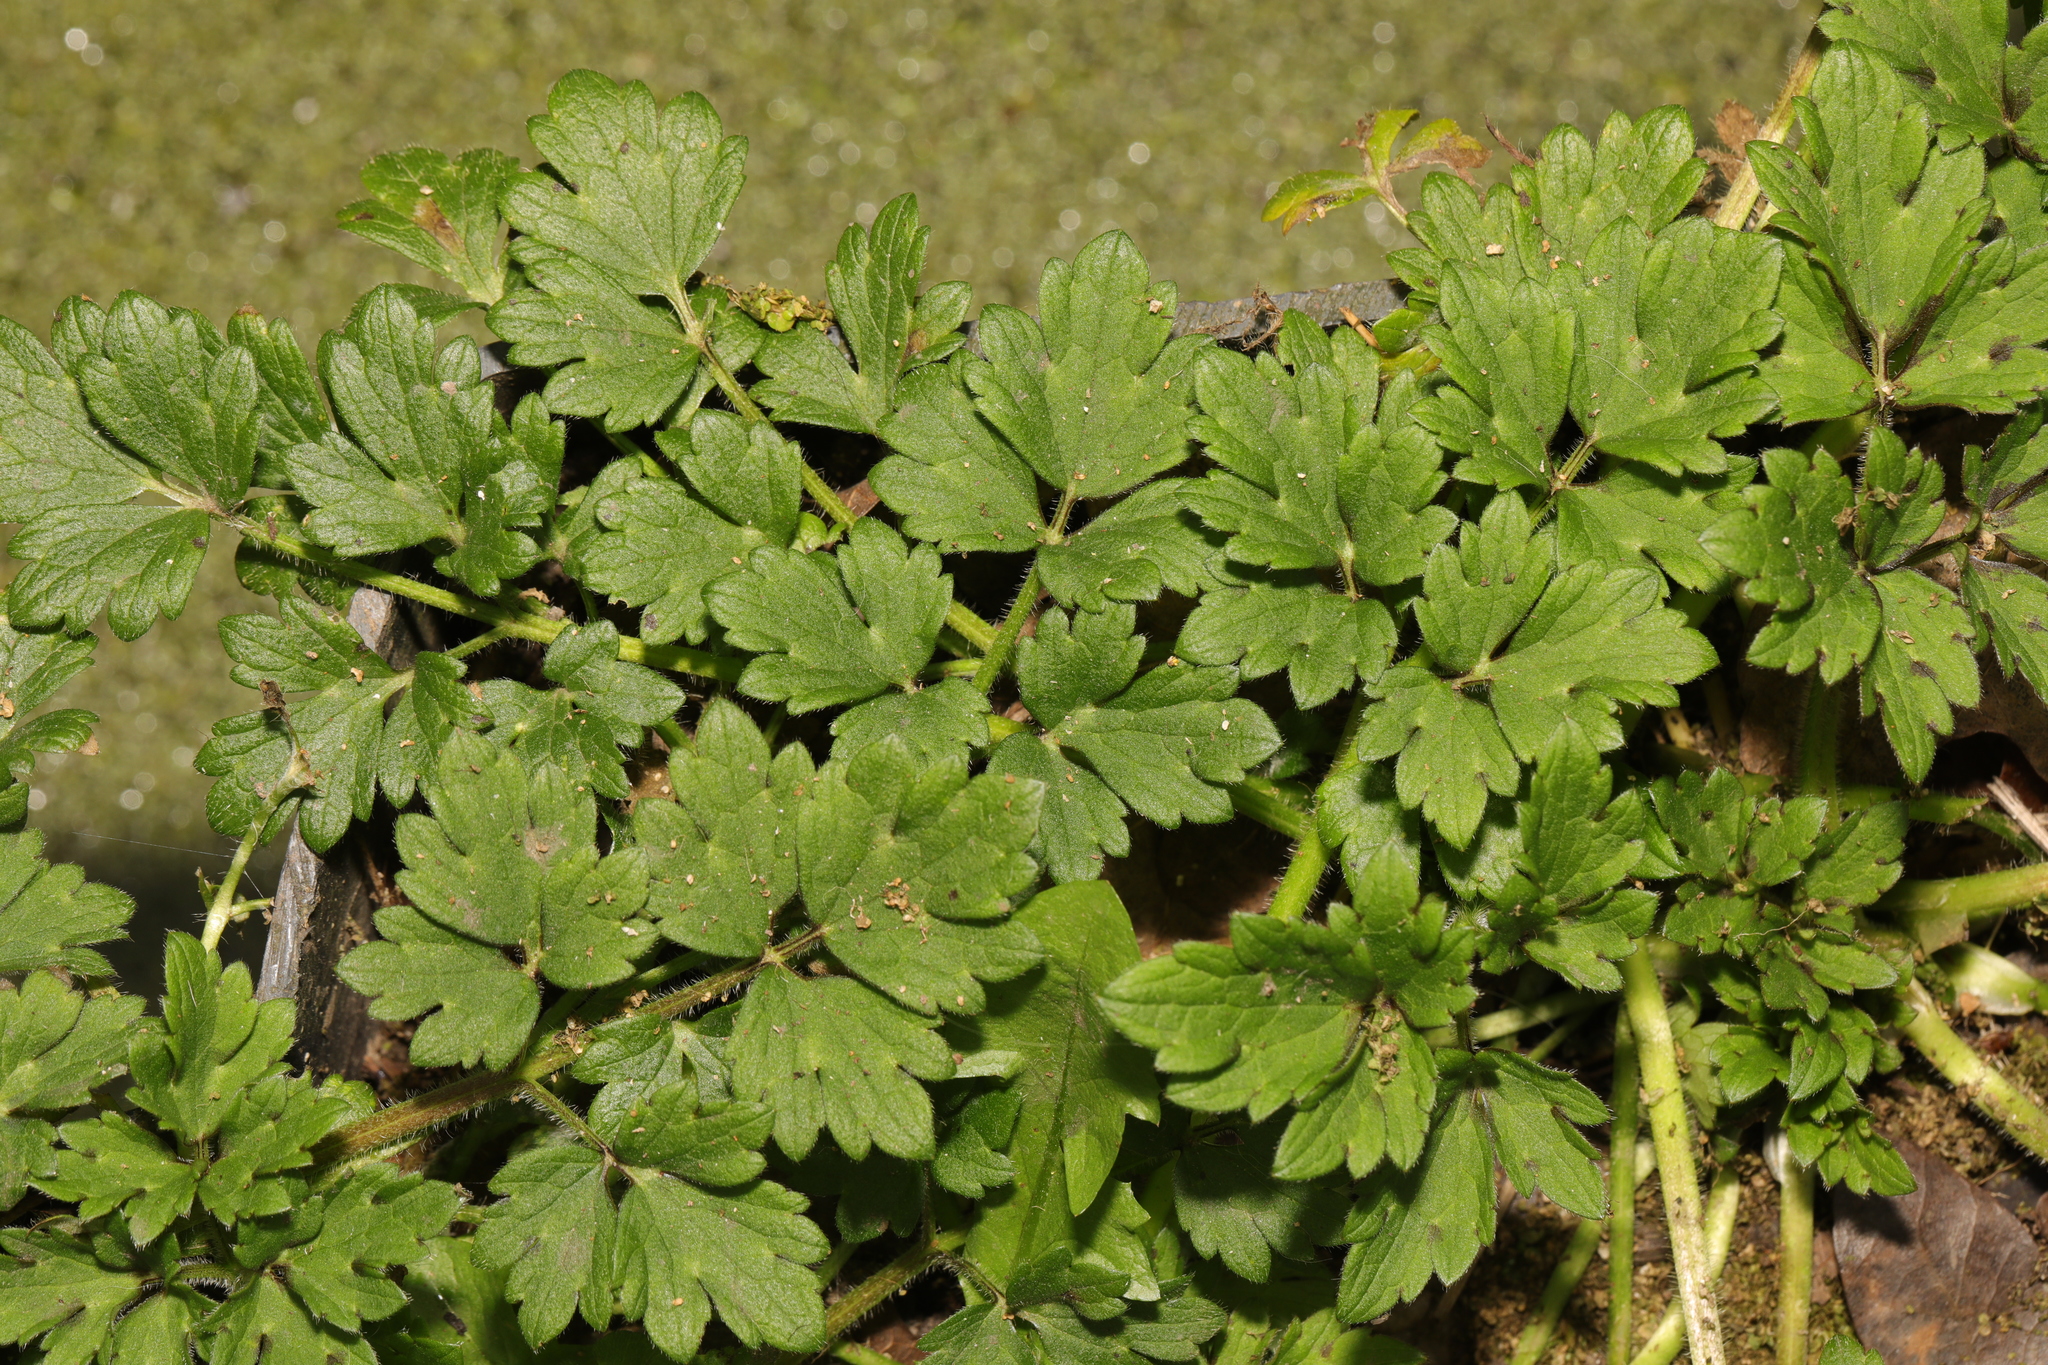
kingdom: Plantae
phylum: Tracheophyta
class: Magnoliopsida
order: Ranunculales
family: Ranunculaceae
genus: Ranunculus
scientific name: Ranunculus repens
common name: Creeping buttercup
